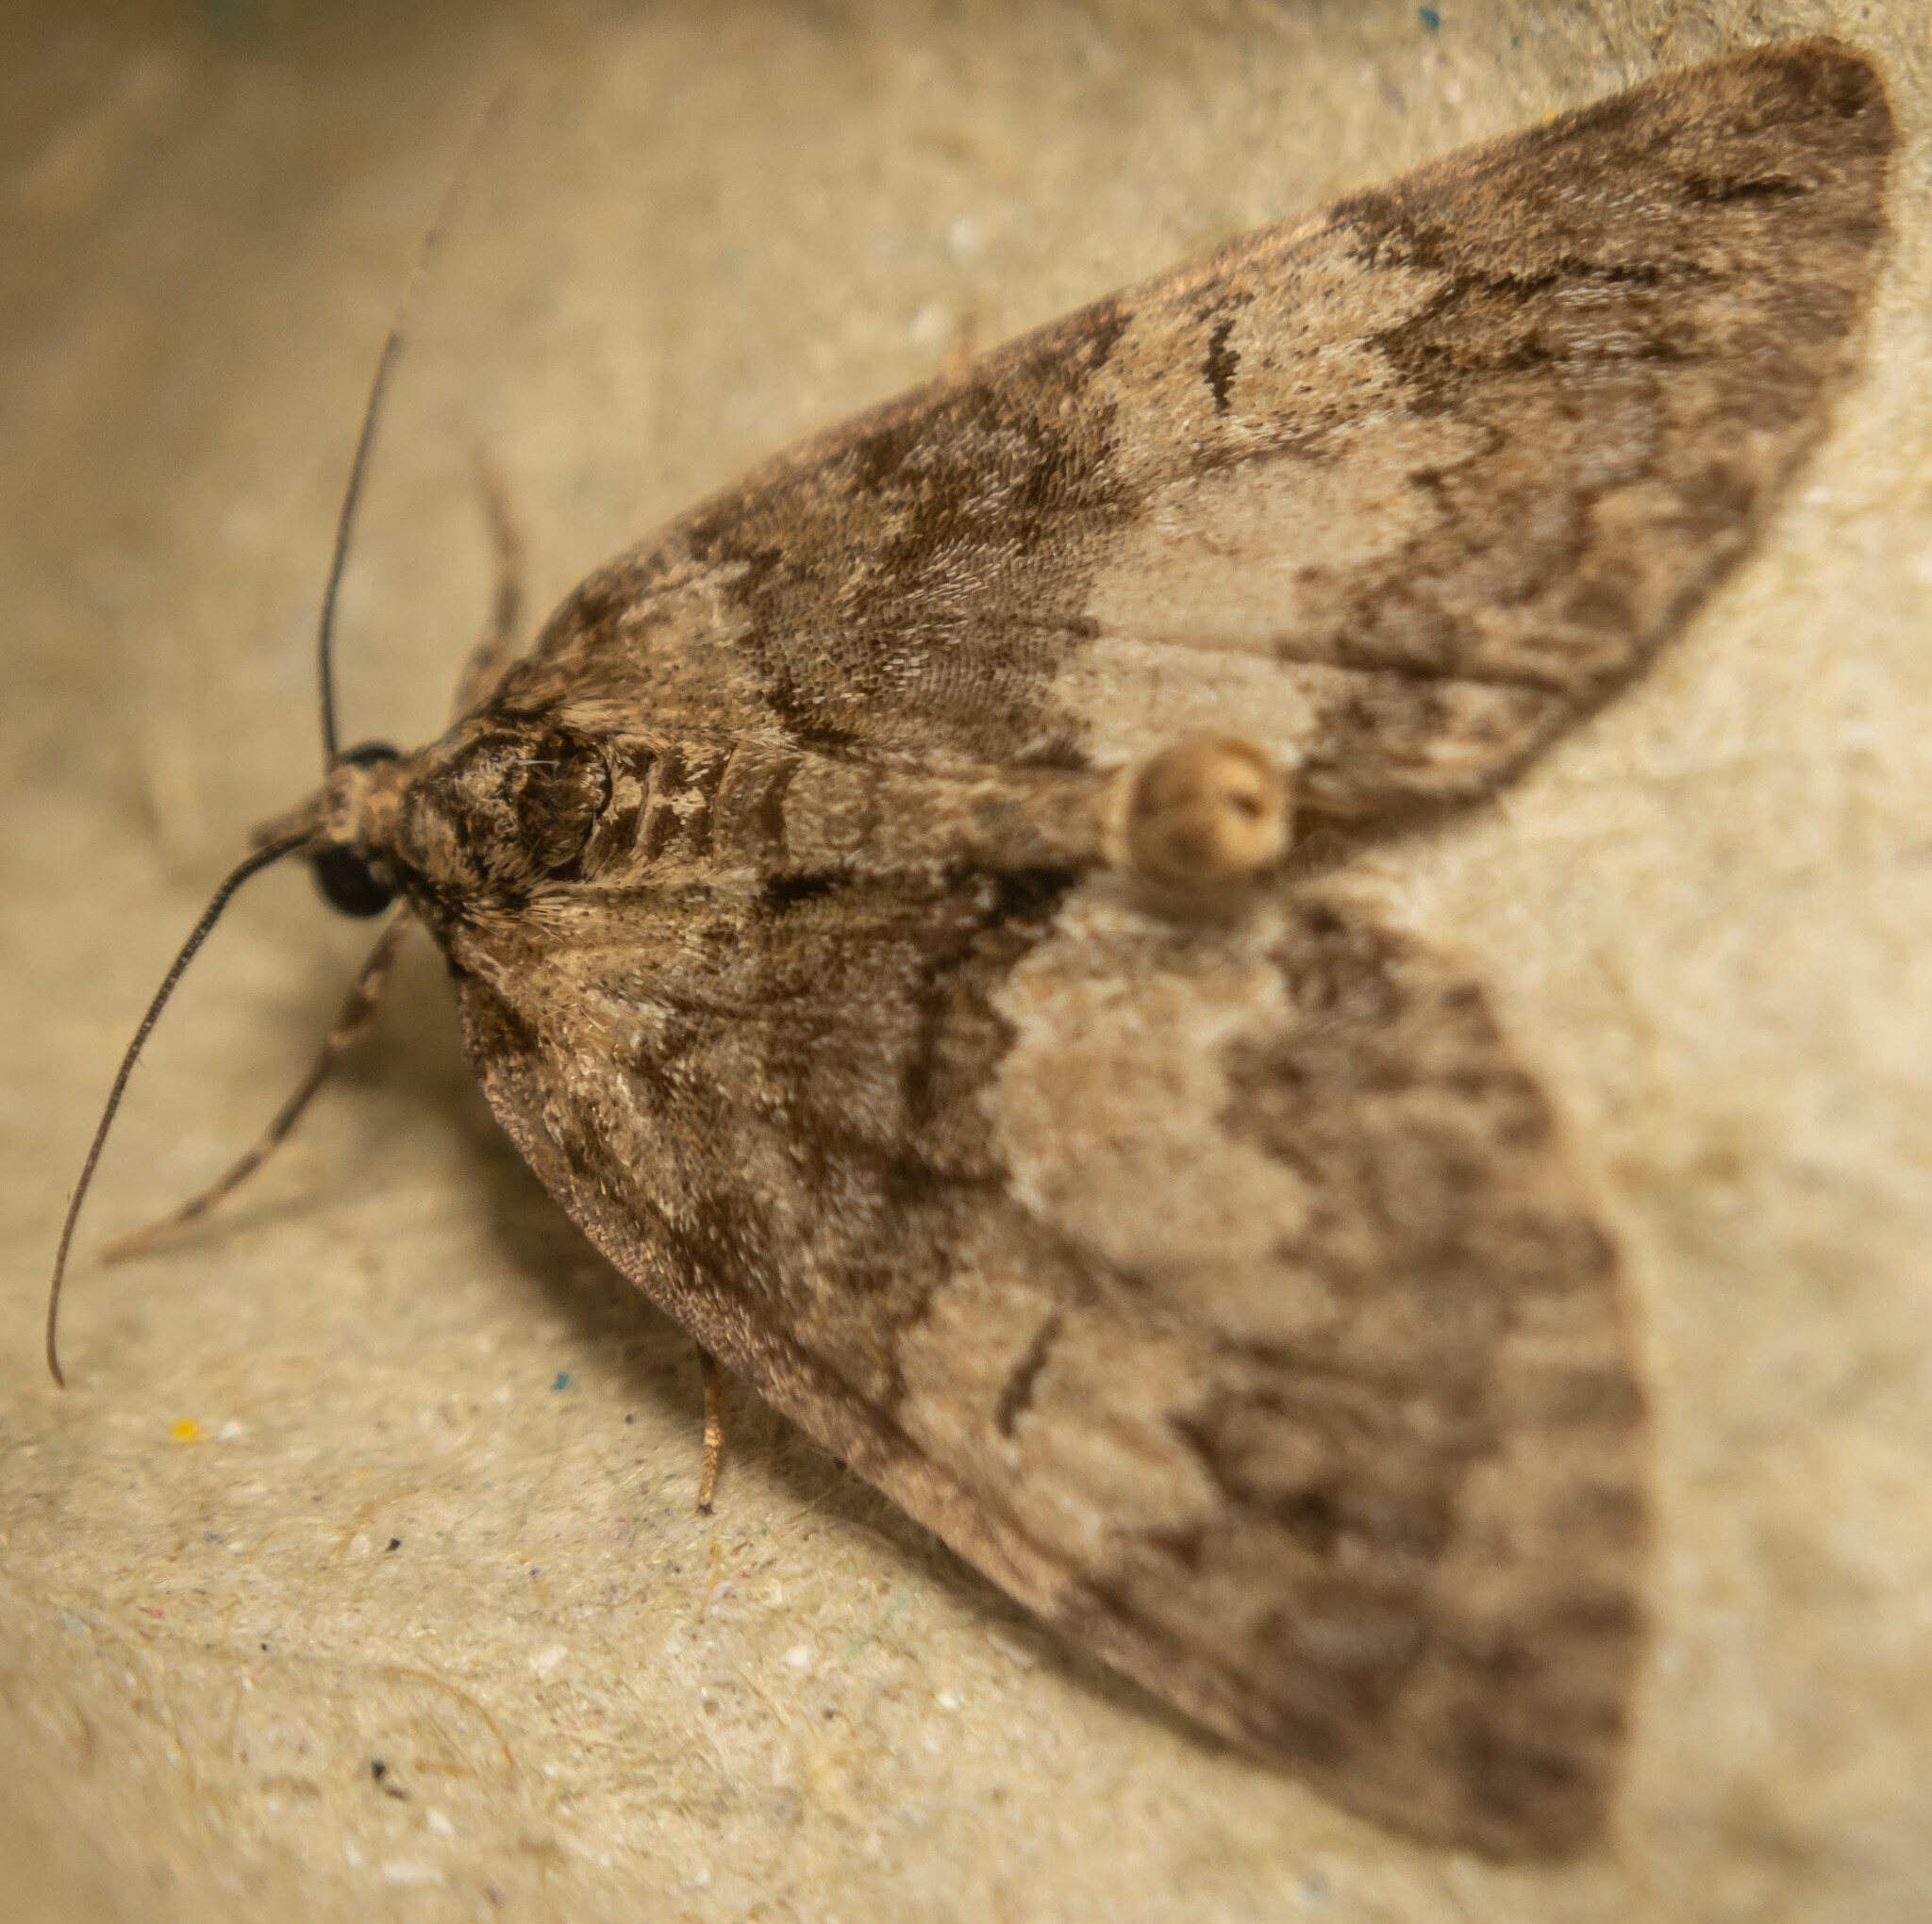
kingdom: Animalia
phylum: Arthropoda
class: Insecta
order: Lepidoptera
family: Geometridae
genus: Hydriomena
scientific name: Hydriomena impluviata
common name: May highflyer
